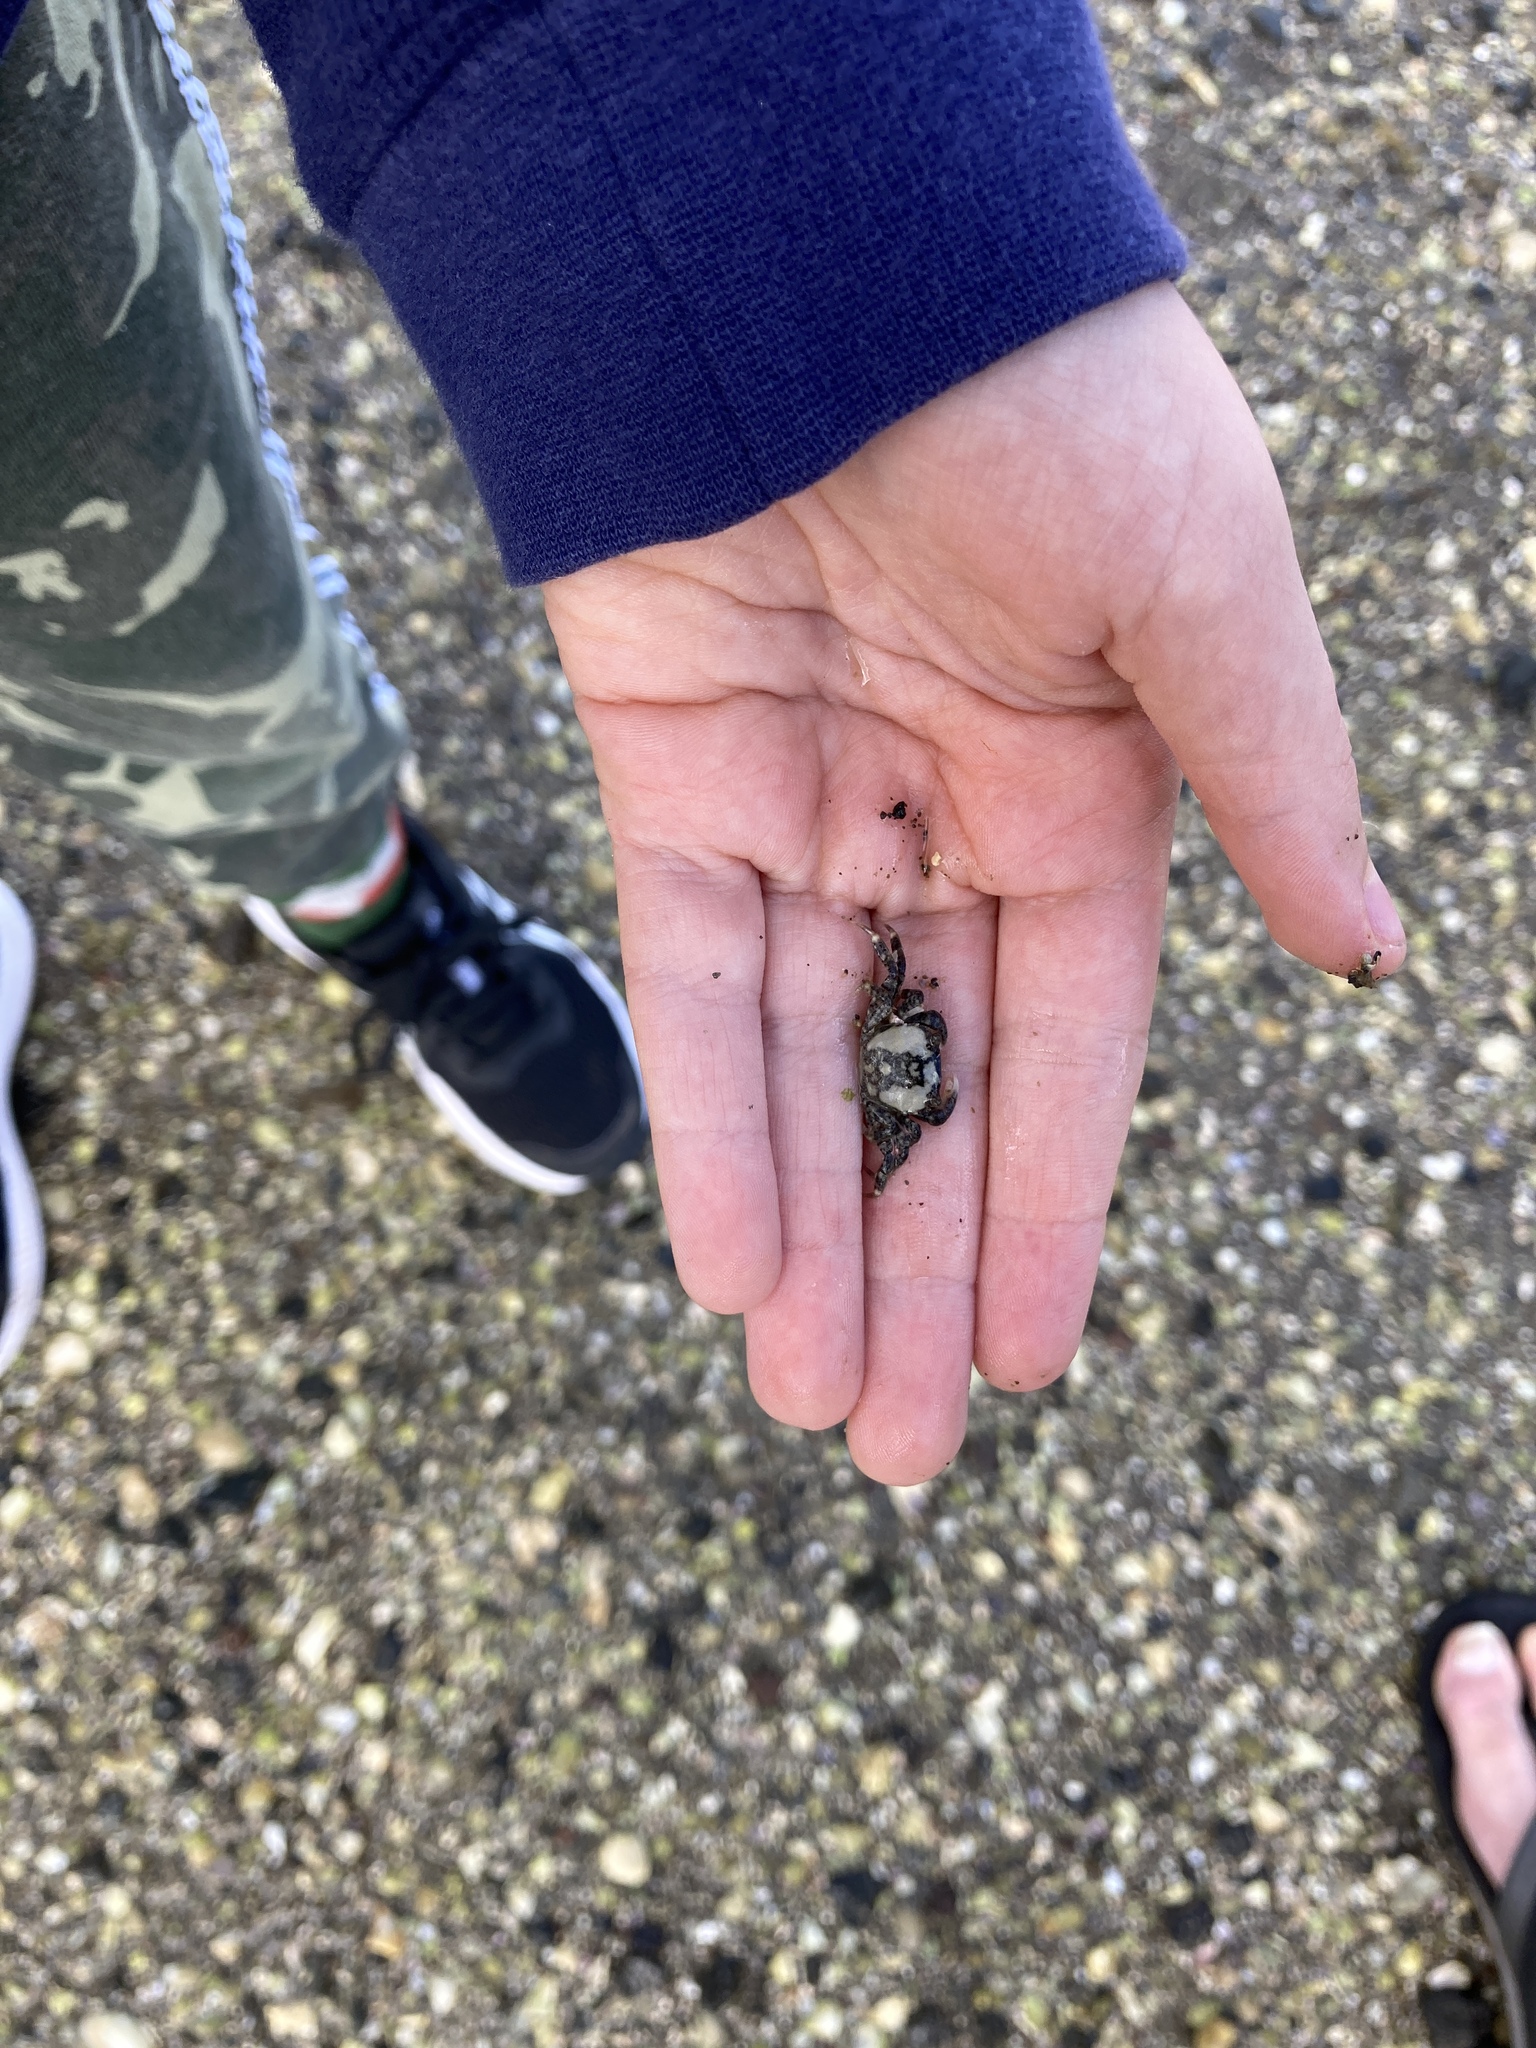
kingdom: Animalia
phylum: Arthropoda
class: Malacostraca
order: Decapoda
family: Varunidae
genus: Hemigrapsus
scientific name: Hemigrapsus crenulatus
